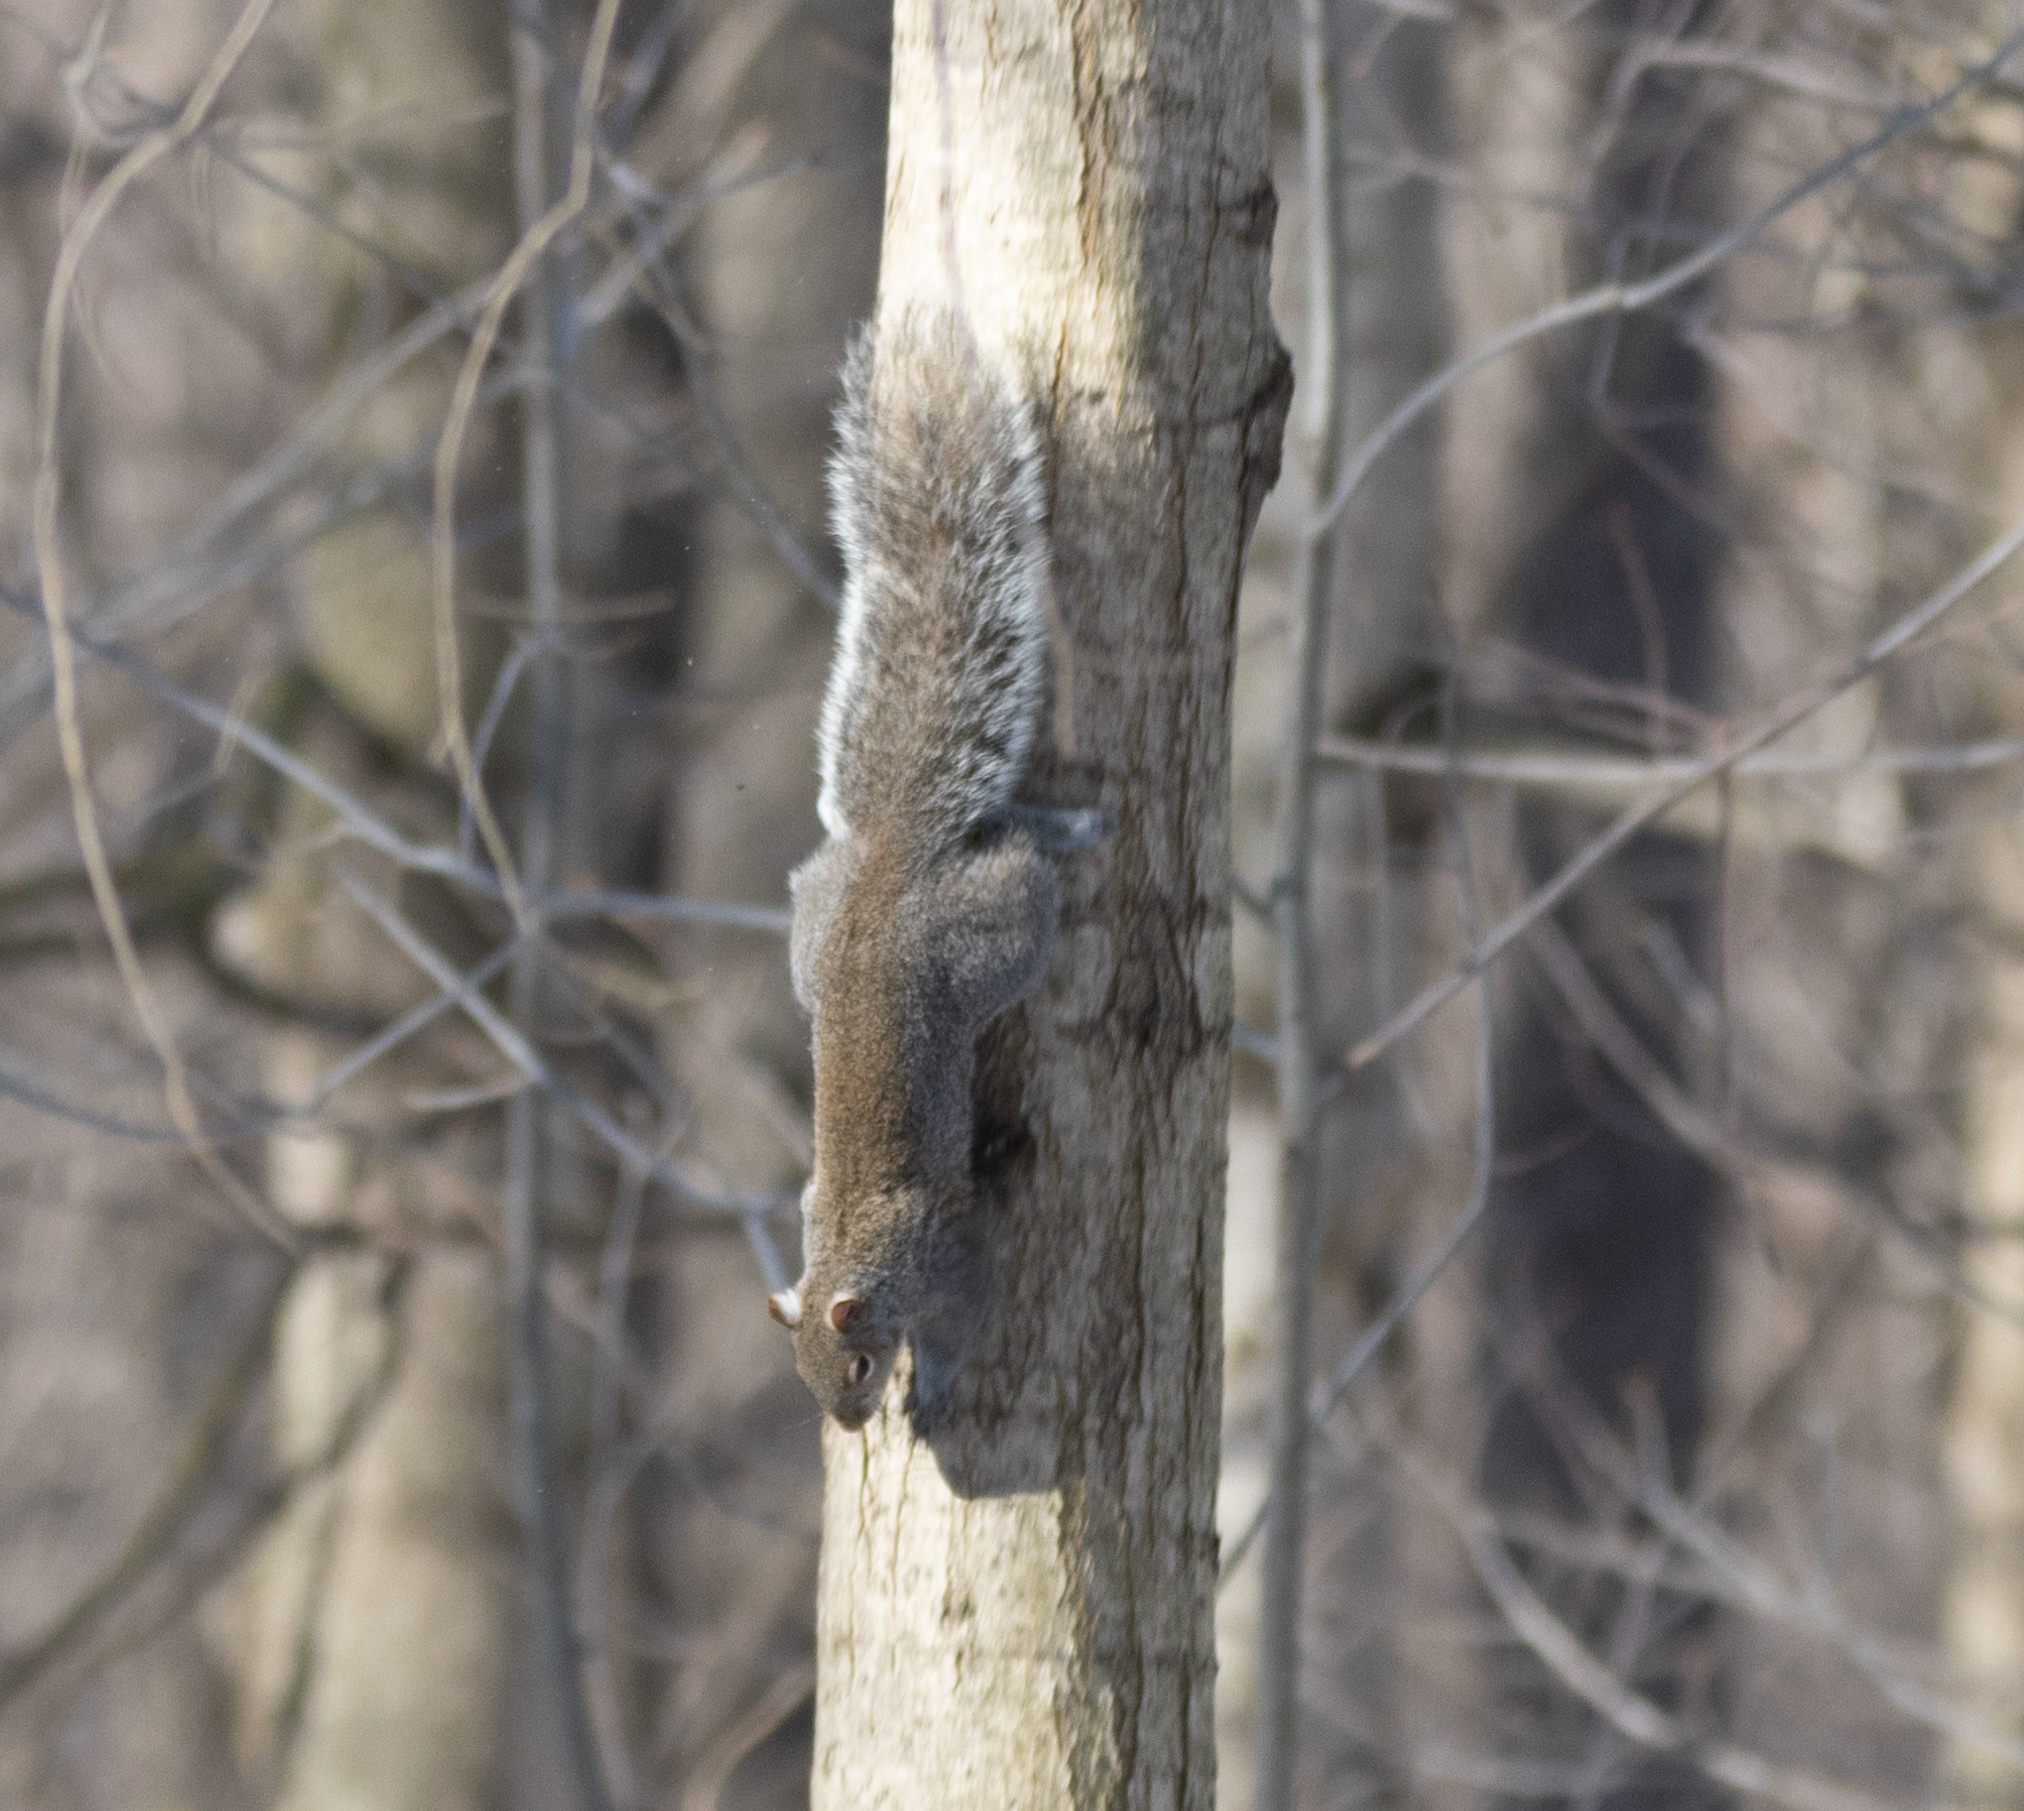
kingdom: Animalia
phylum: Chordata
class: Mammalia
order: Rodentia
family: Sciuridae
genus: Sciurus
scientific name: Sciurus carolinensis
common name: Eastern gray squirrel
